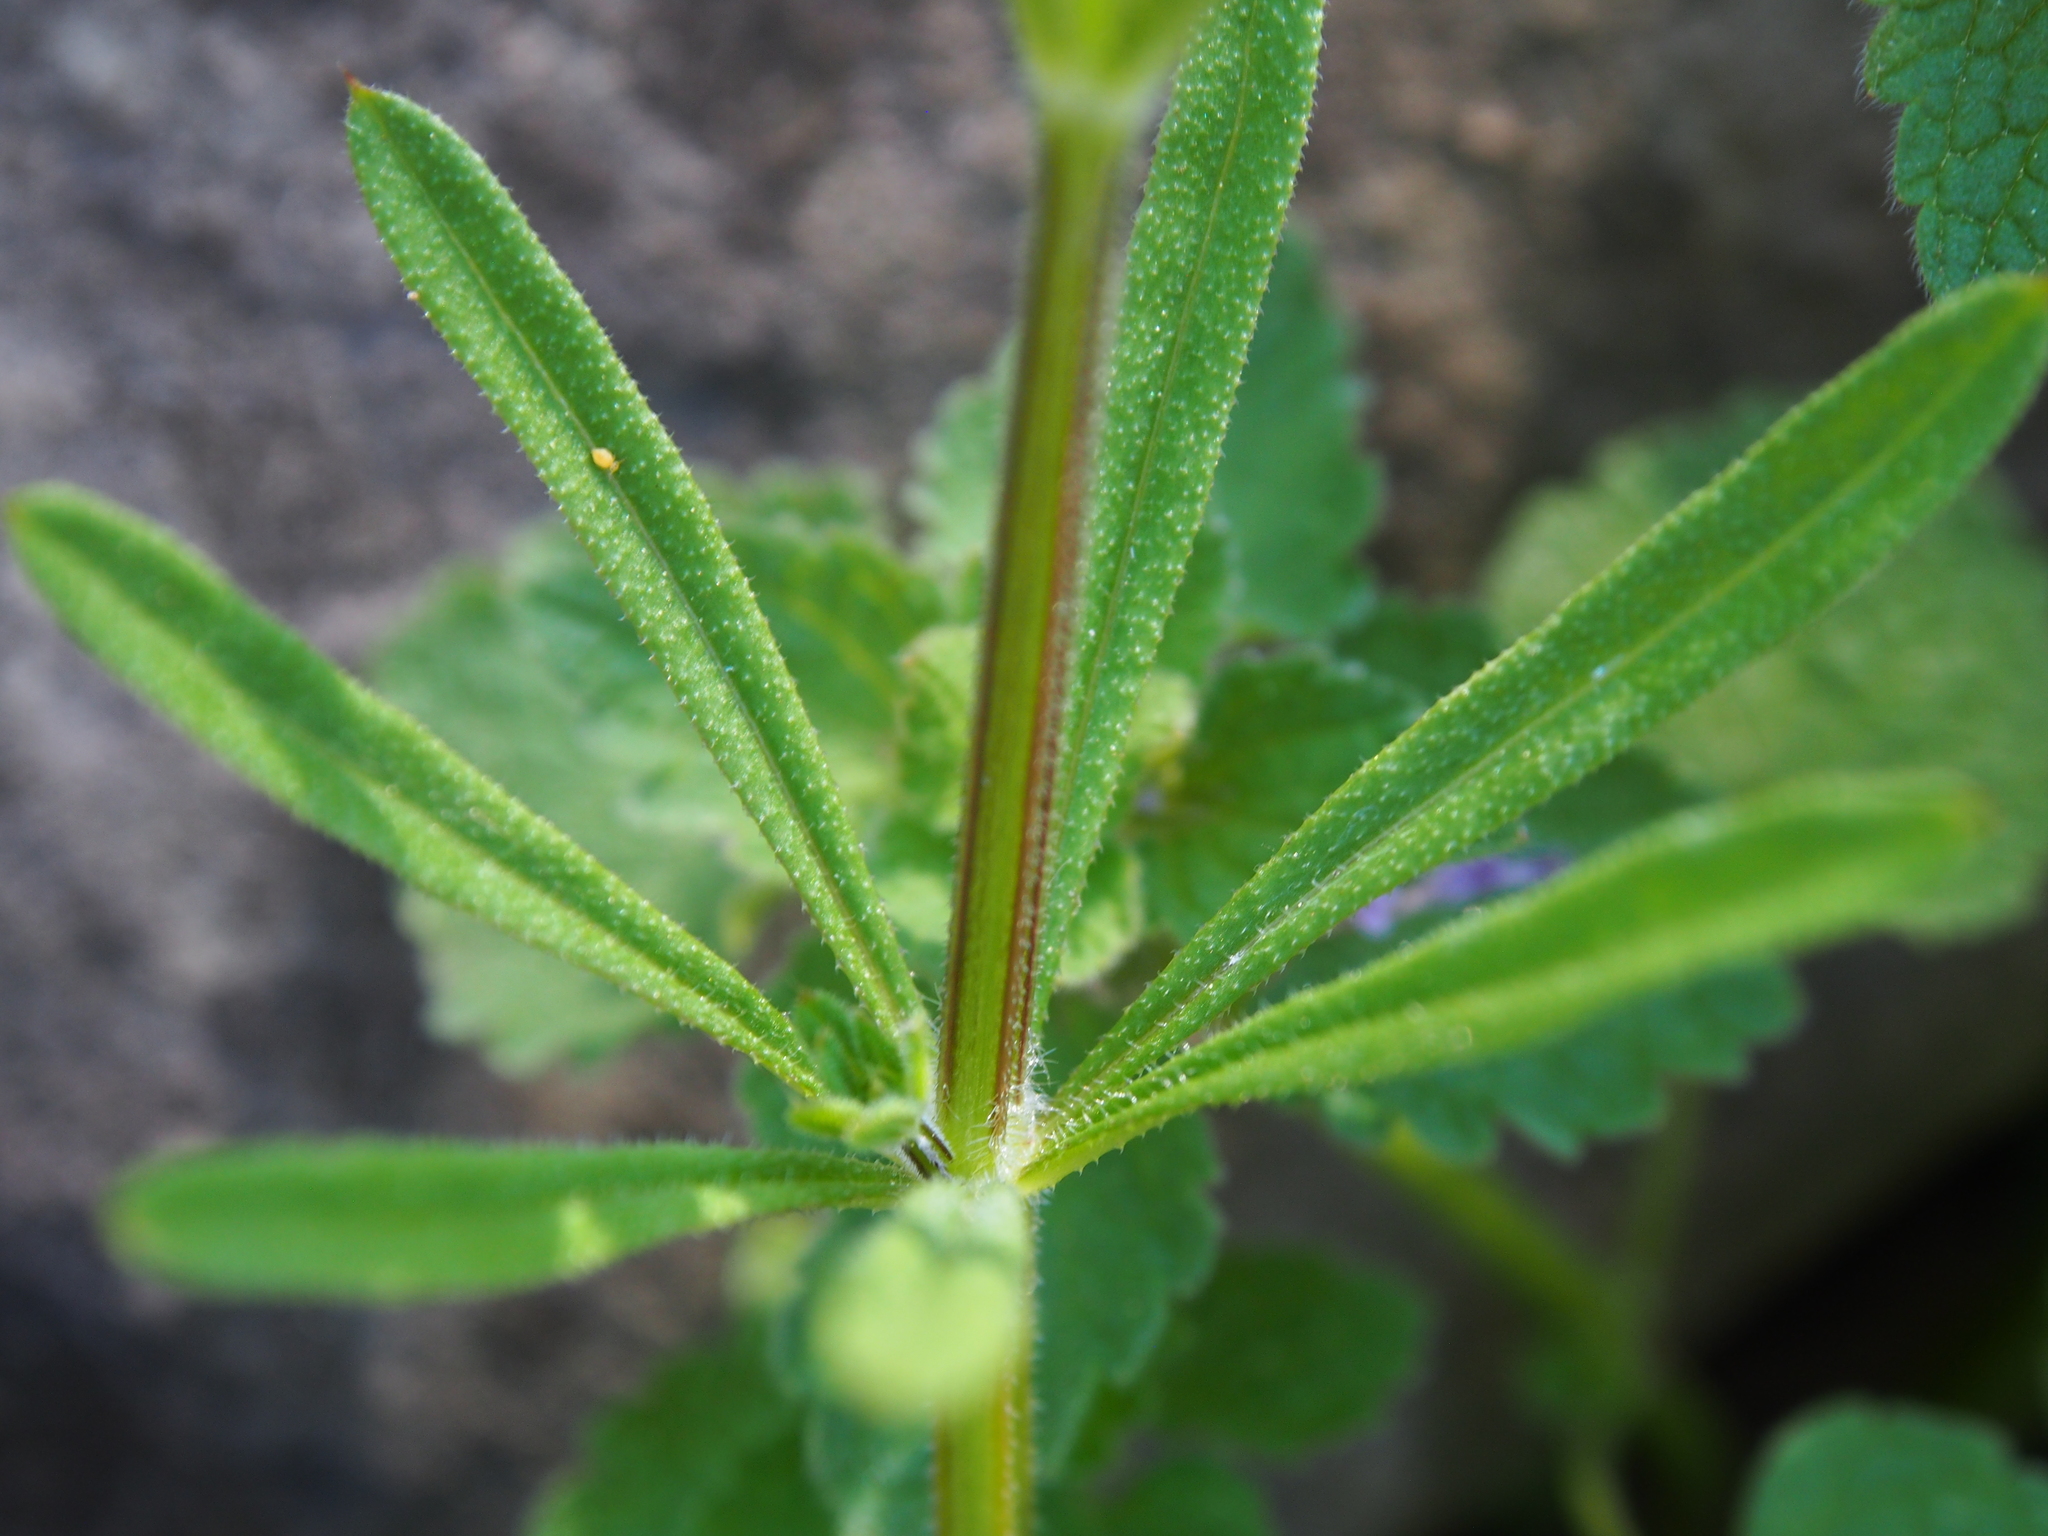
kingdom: Plantae
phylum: Tracheophyta
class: Magnoliopsida
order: Gentianales
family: Rubiaceae
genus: Galium
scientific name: Galium aparine
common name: Cleavers
